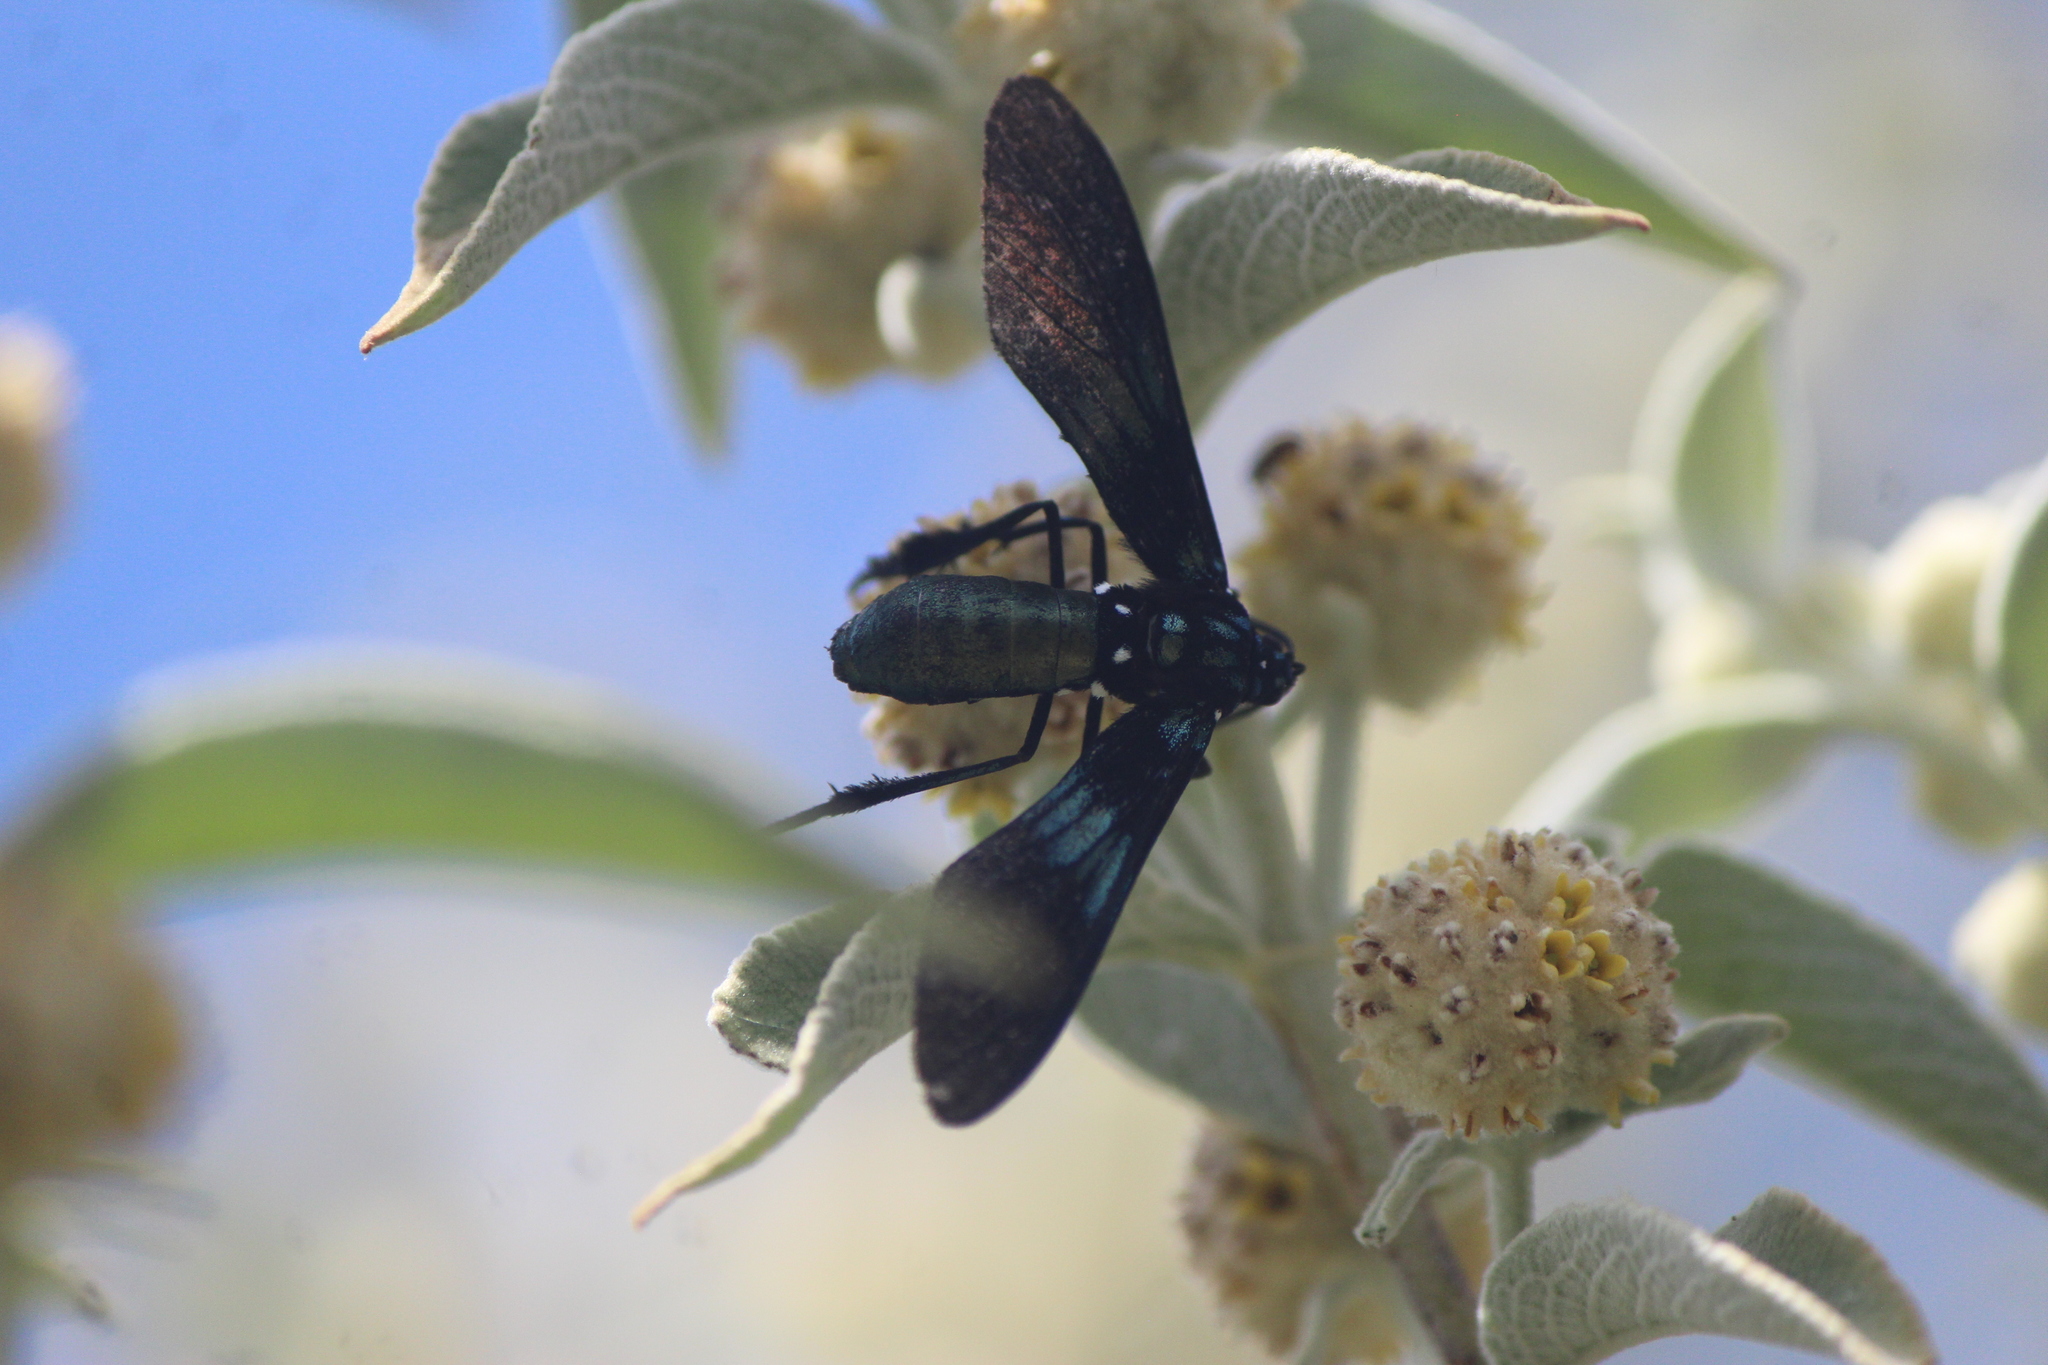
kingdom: Animalia
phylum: Arthropoda
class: Insecta
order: Lepidoptera
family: Erebidae
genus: Macrocneme
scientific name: Macrocneme chrysitis
